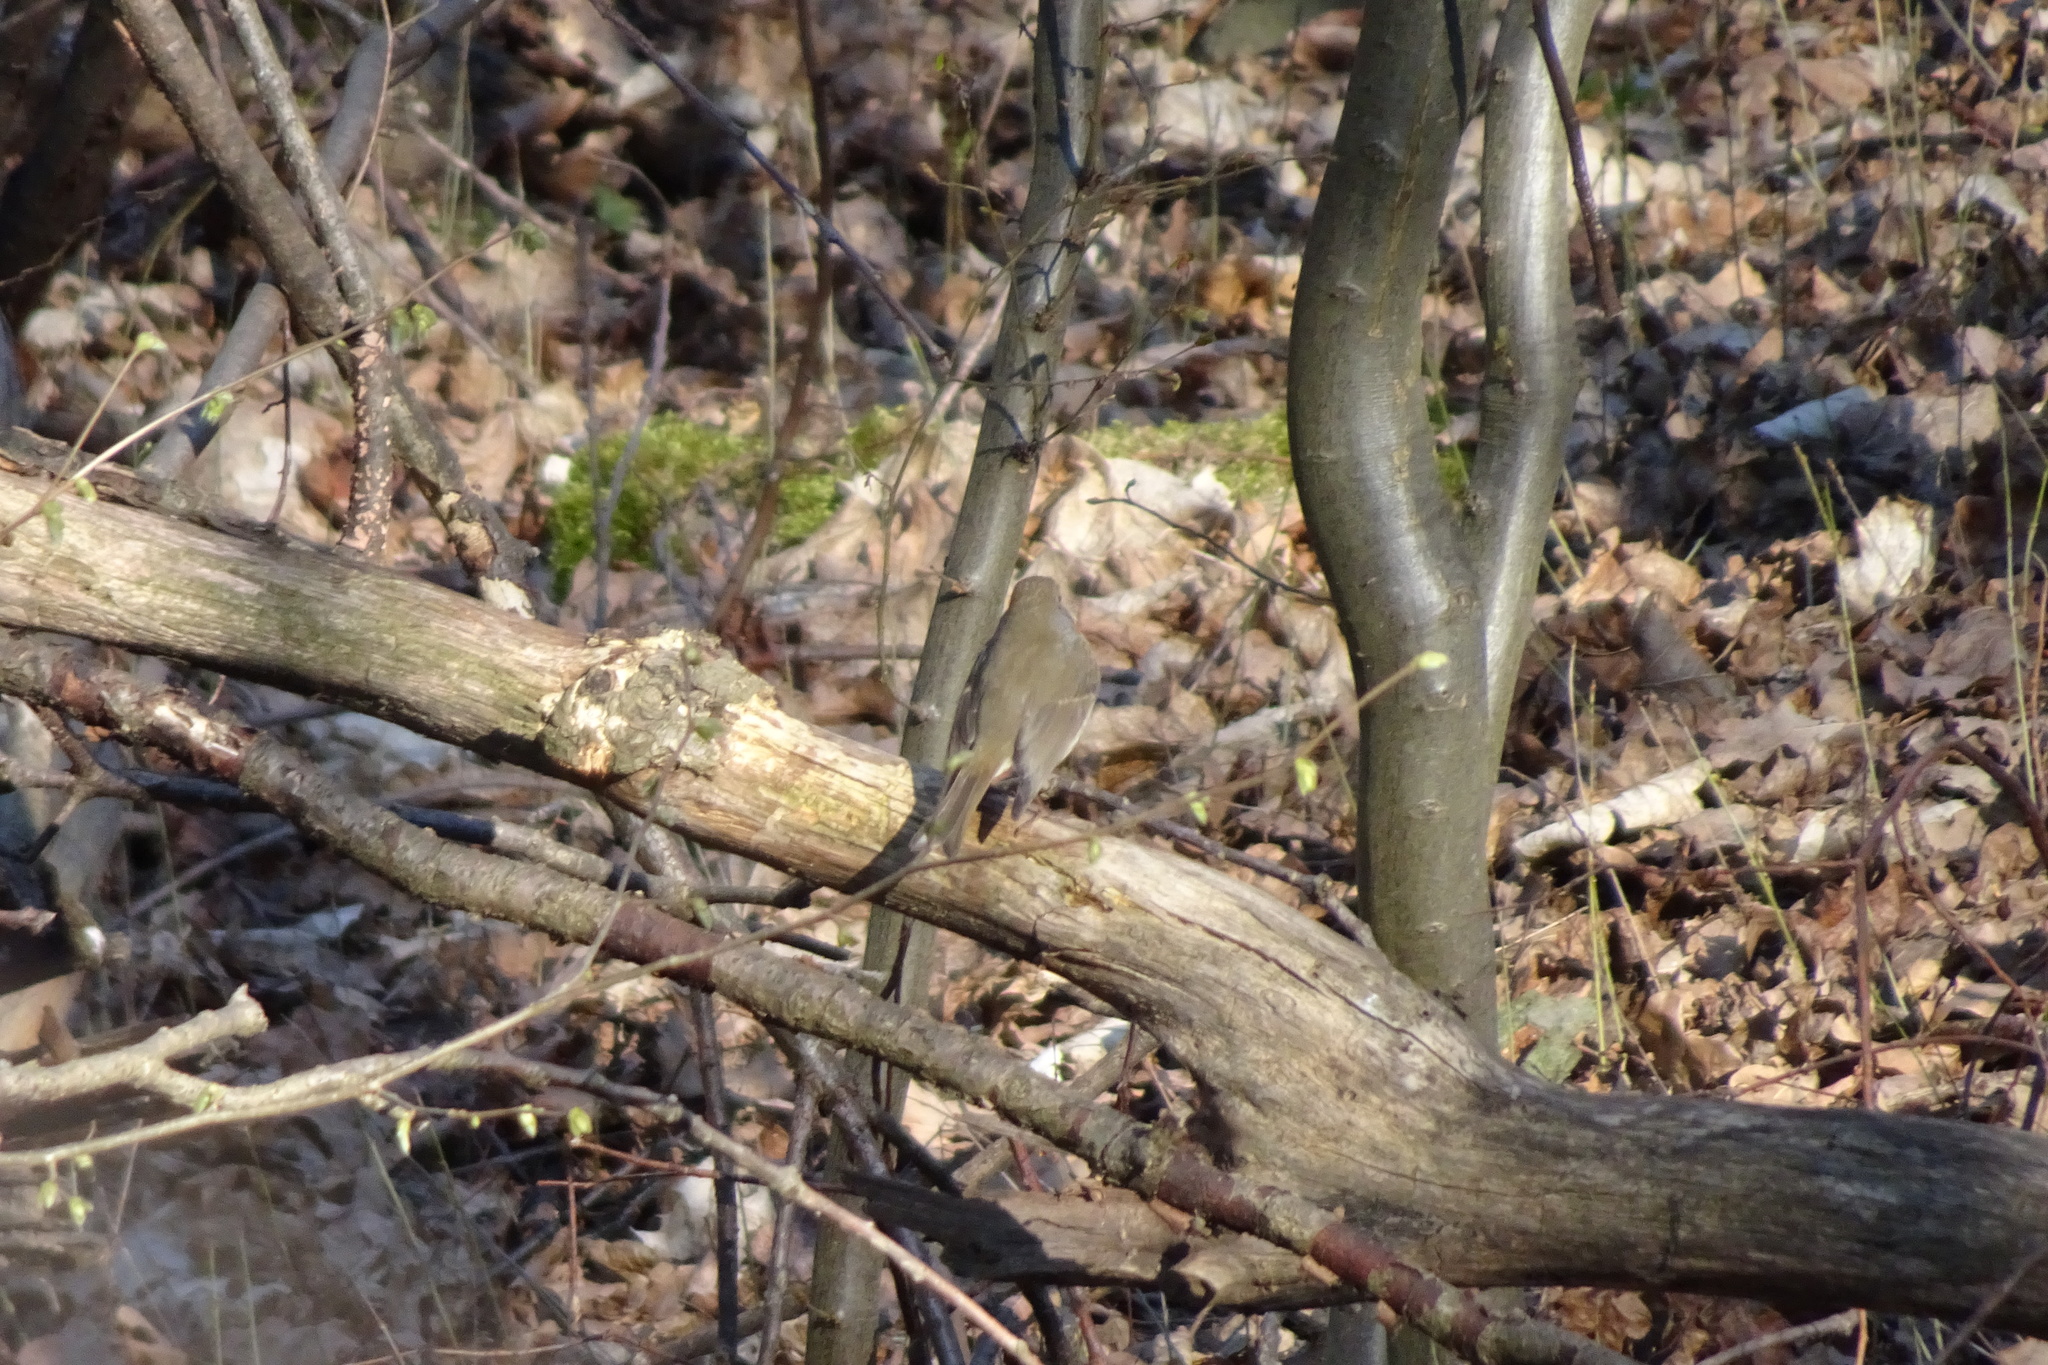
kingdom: Animalia
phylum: Chordata
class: Aves
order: Passeriformes
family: Muscicapidae
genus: Erithacus
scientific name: Erithacus rubecula
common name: European robin
